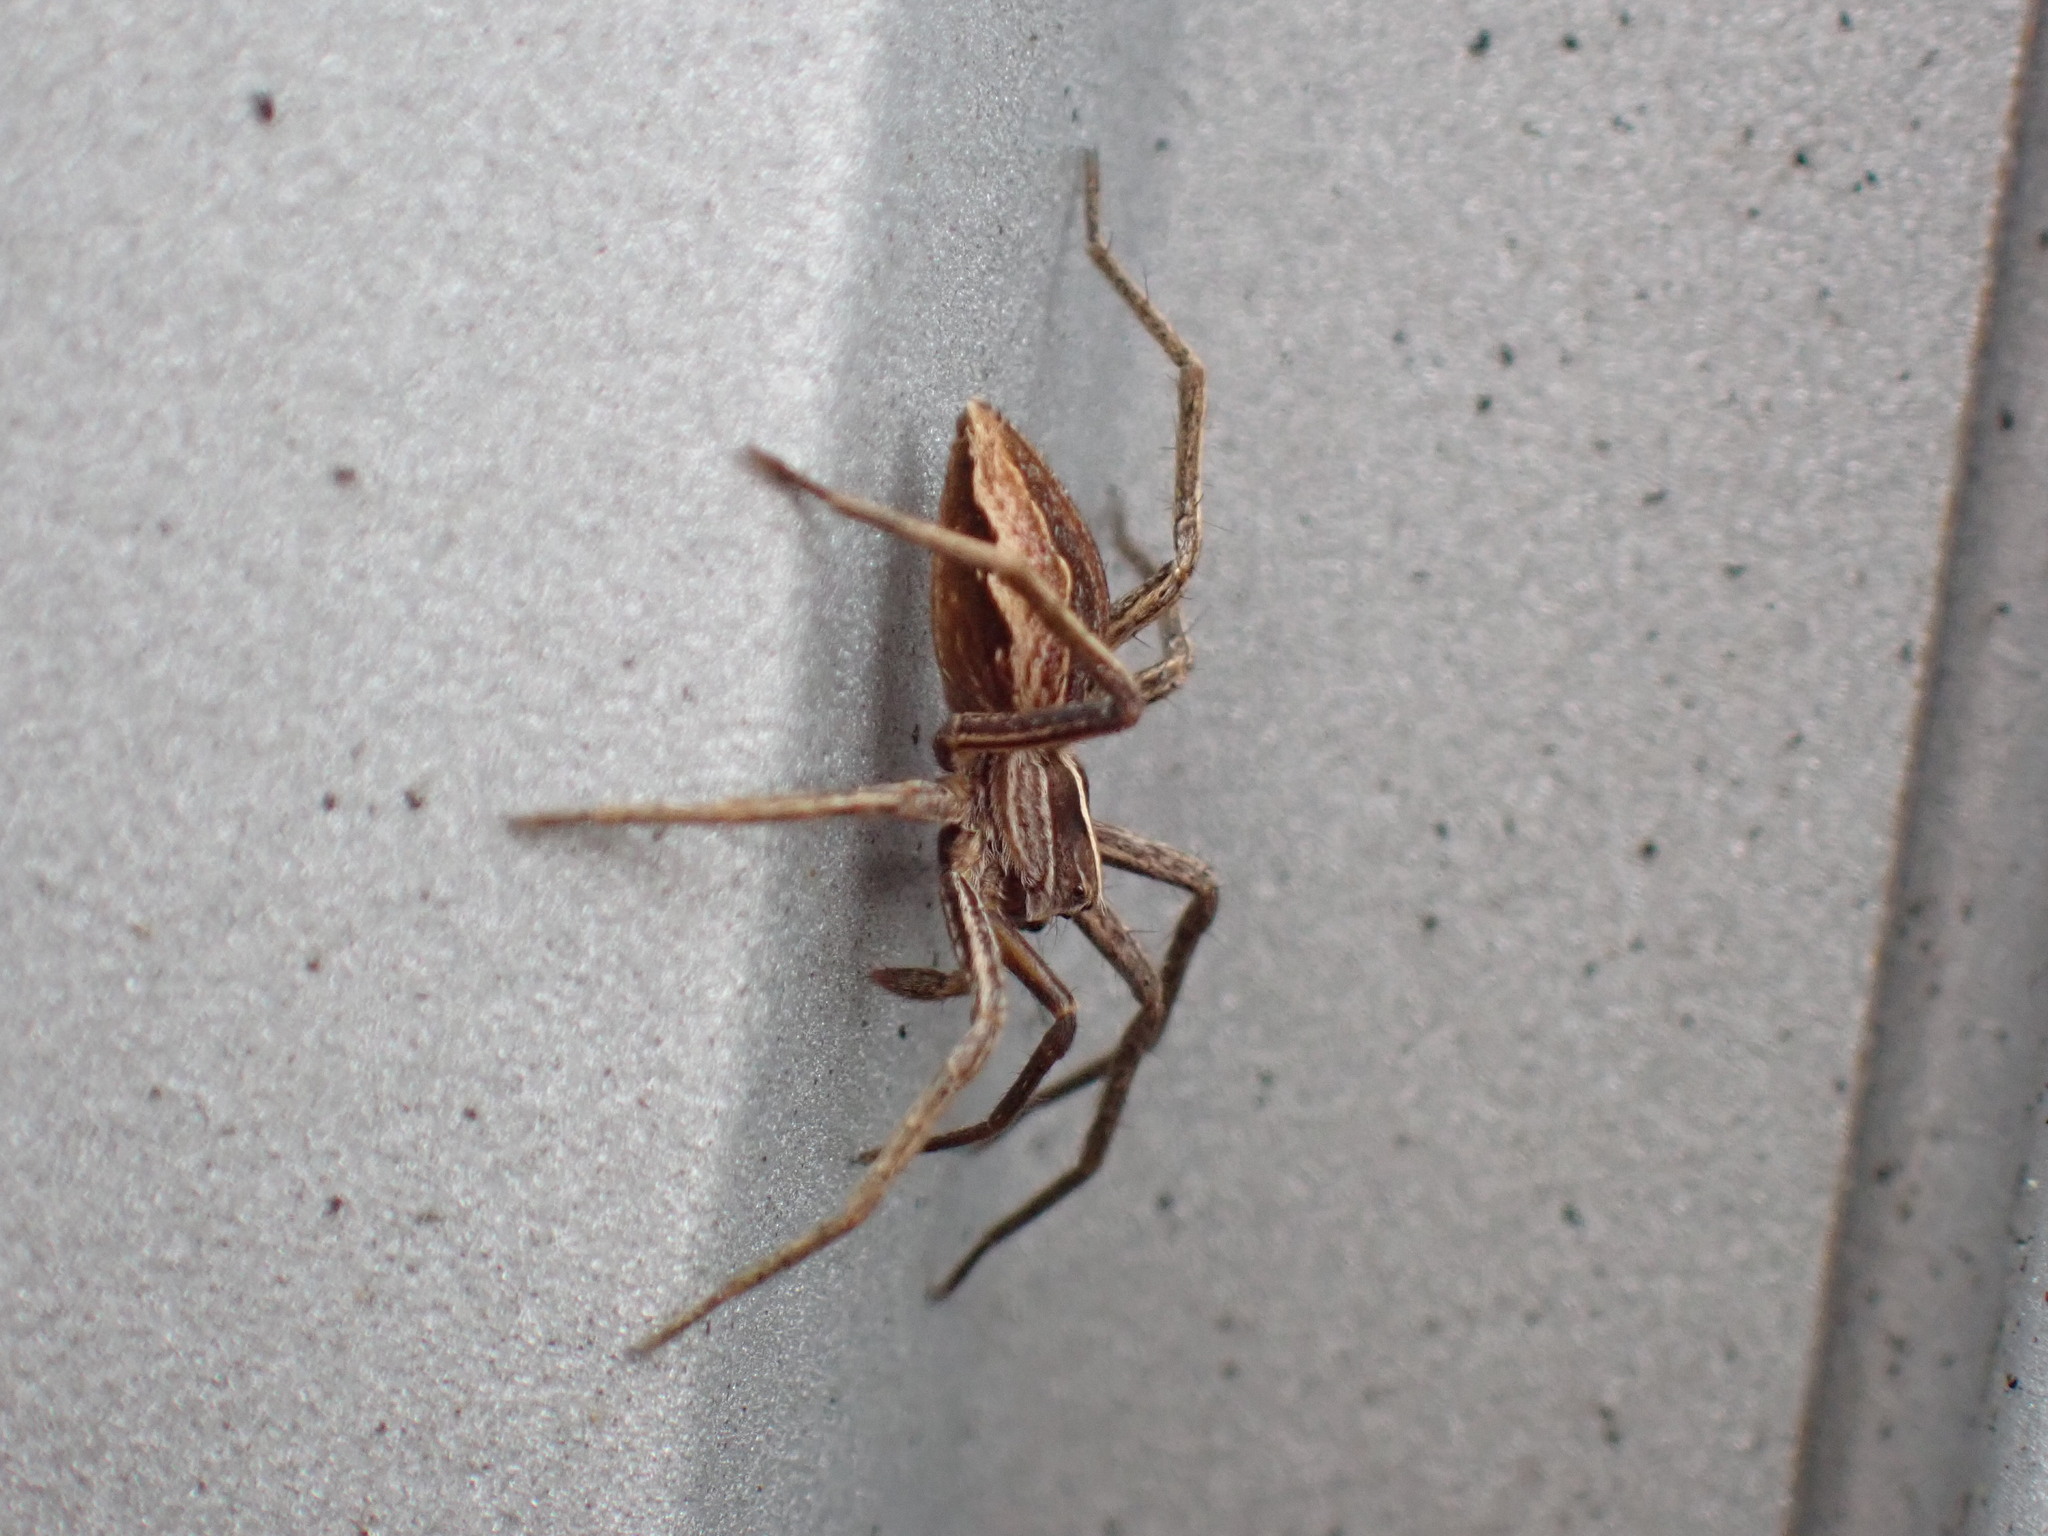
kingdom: Animalia
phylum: Arthropoda
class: Arachnida
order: Araneae
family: Pisauridae
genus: Pisaura
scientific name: Pisaura mirabilis
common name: Tent spider
